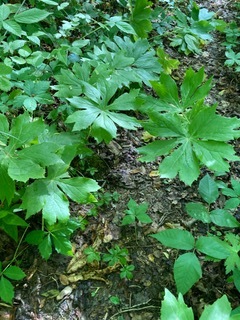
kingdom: Plantae
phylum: Tracheophyta
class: Magnoliopsida
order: Ranunculales
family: Berberidaceae
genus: Podophyllum
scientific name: Podophyllum peltatum
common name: Wild mandrake
